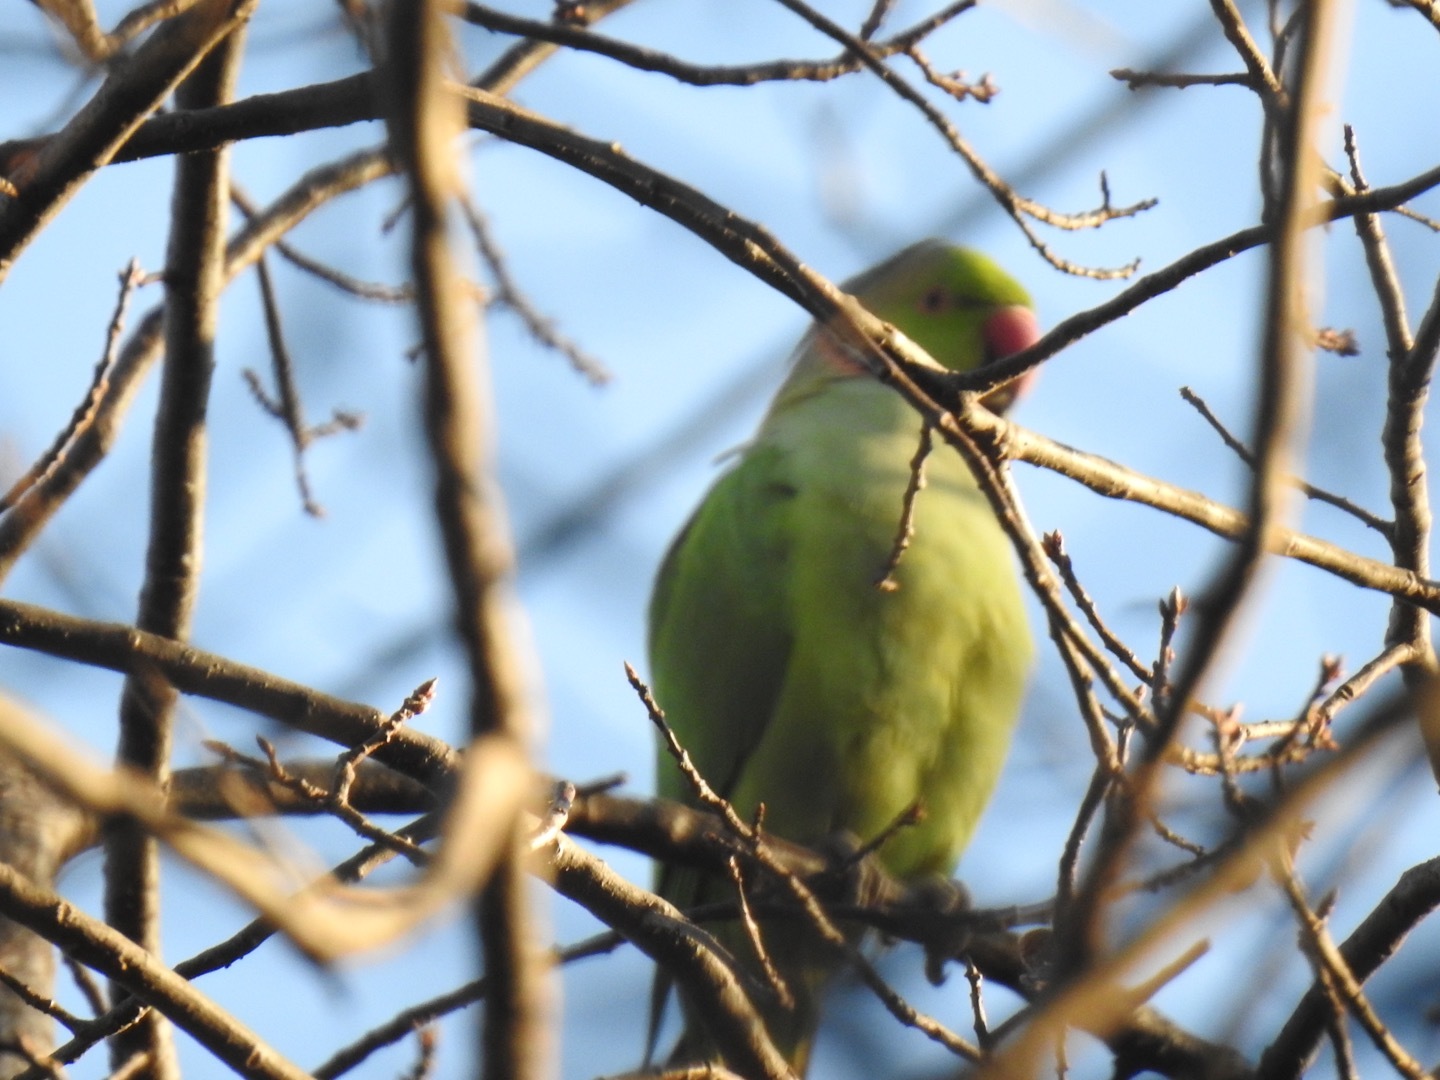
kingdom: Animalia
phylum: Chordata
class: Aves
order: Psittaciformes
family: Psittacidae
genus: Psittacula
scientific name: Psittacula krameri
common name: Rose-ringed parakeet
